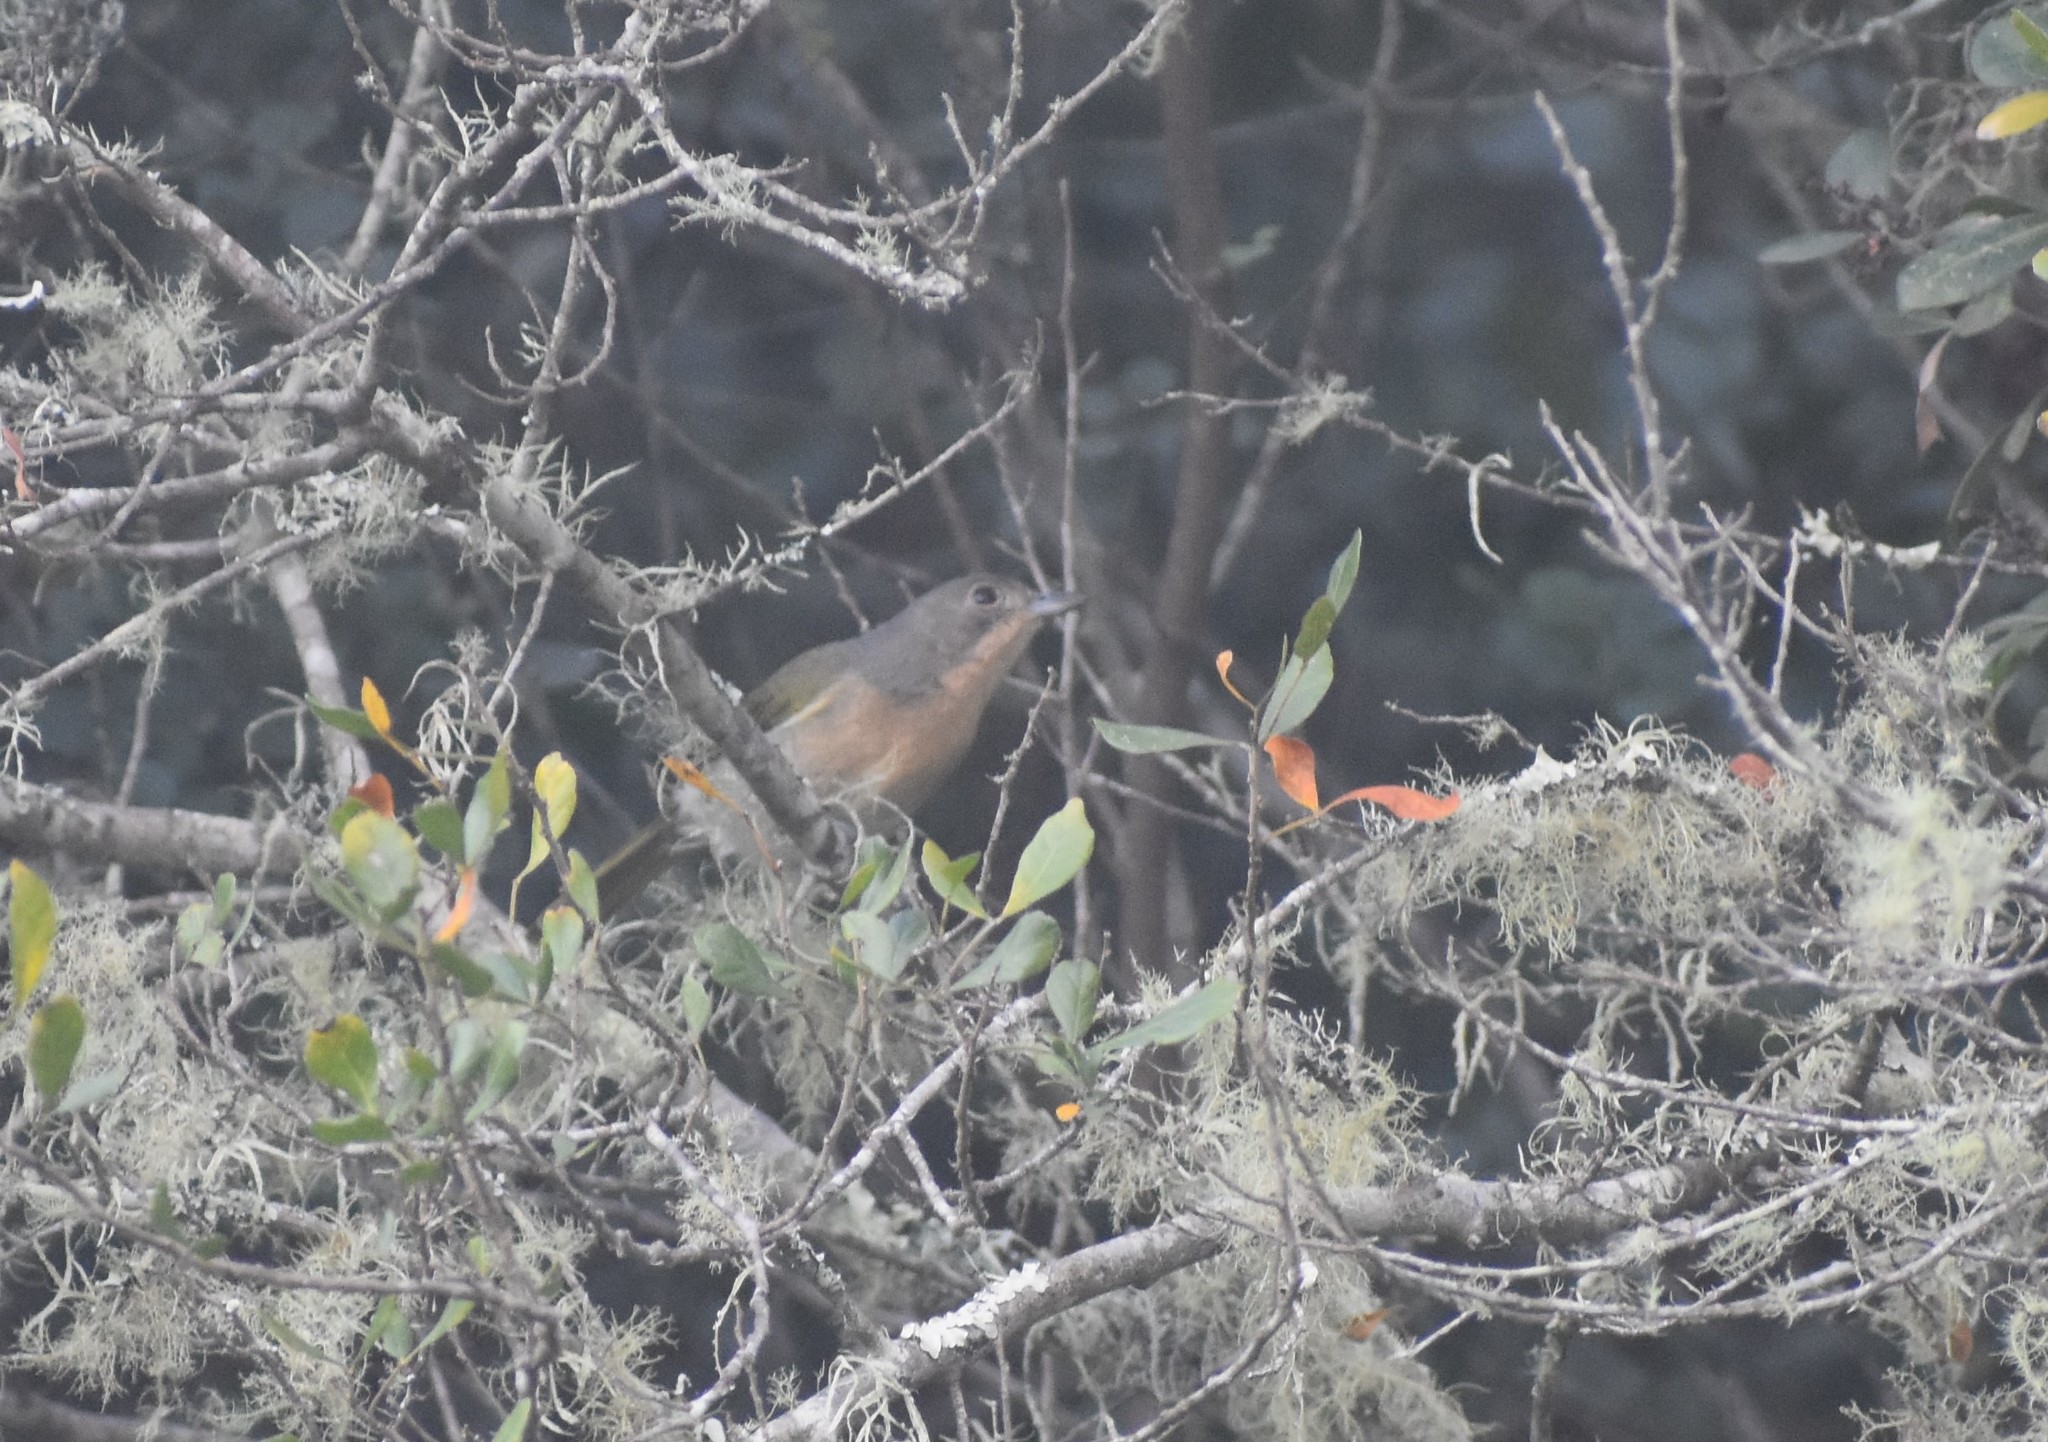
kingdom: Animalia
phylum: Chordata
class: Aves
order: Passeriformes
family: Malaconotidae
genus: Chlorophoneus
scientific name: Chlorophoneus olivaceus
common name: Olive bushshrike
